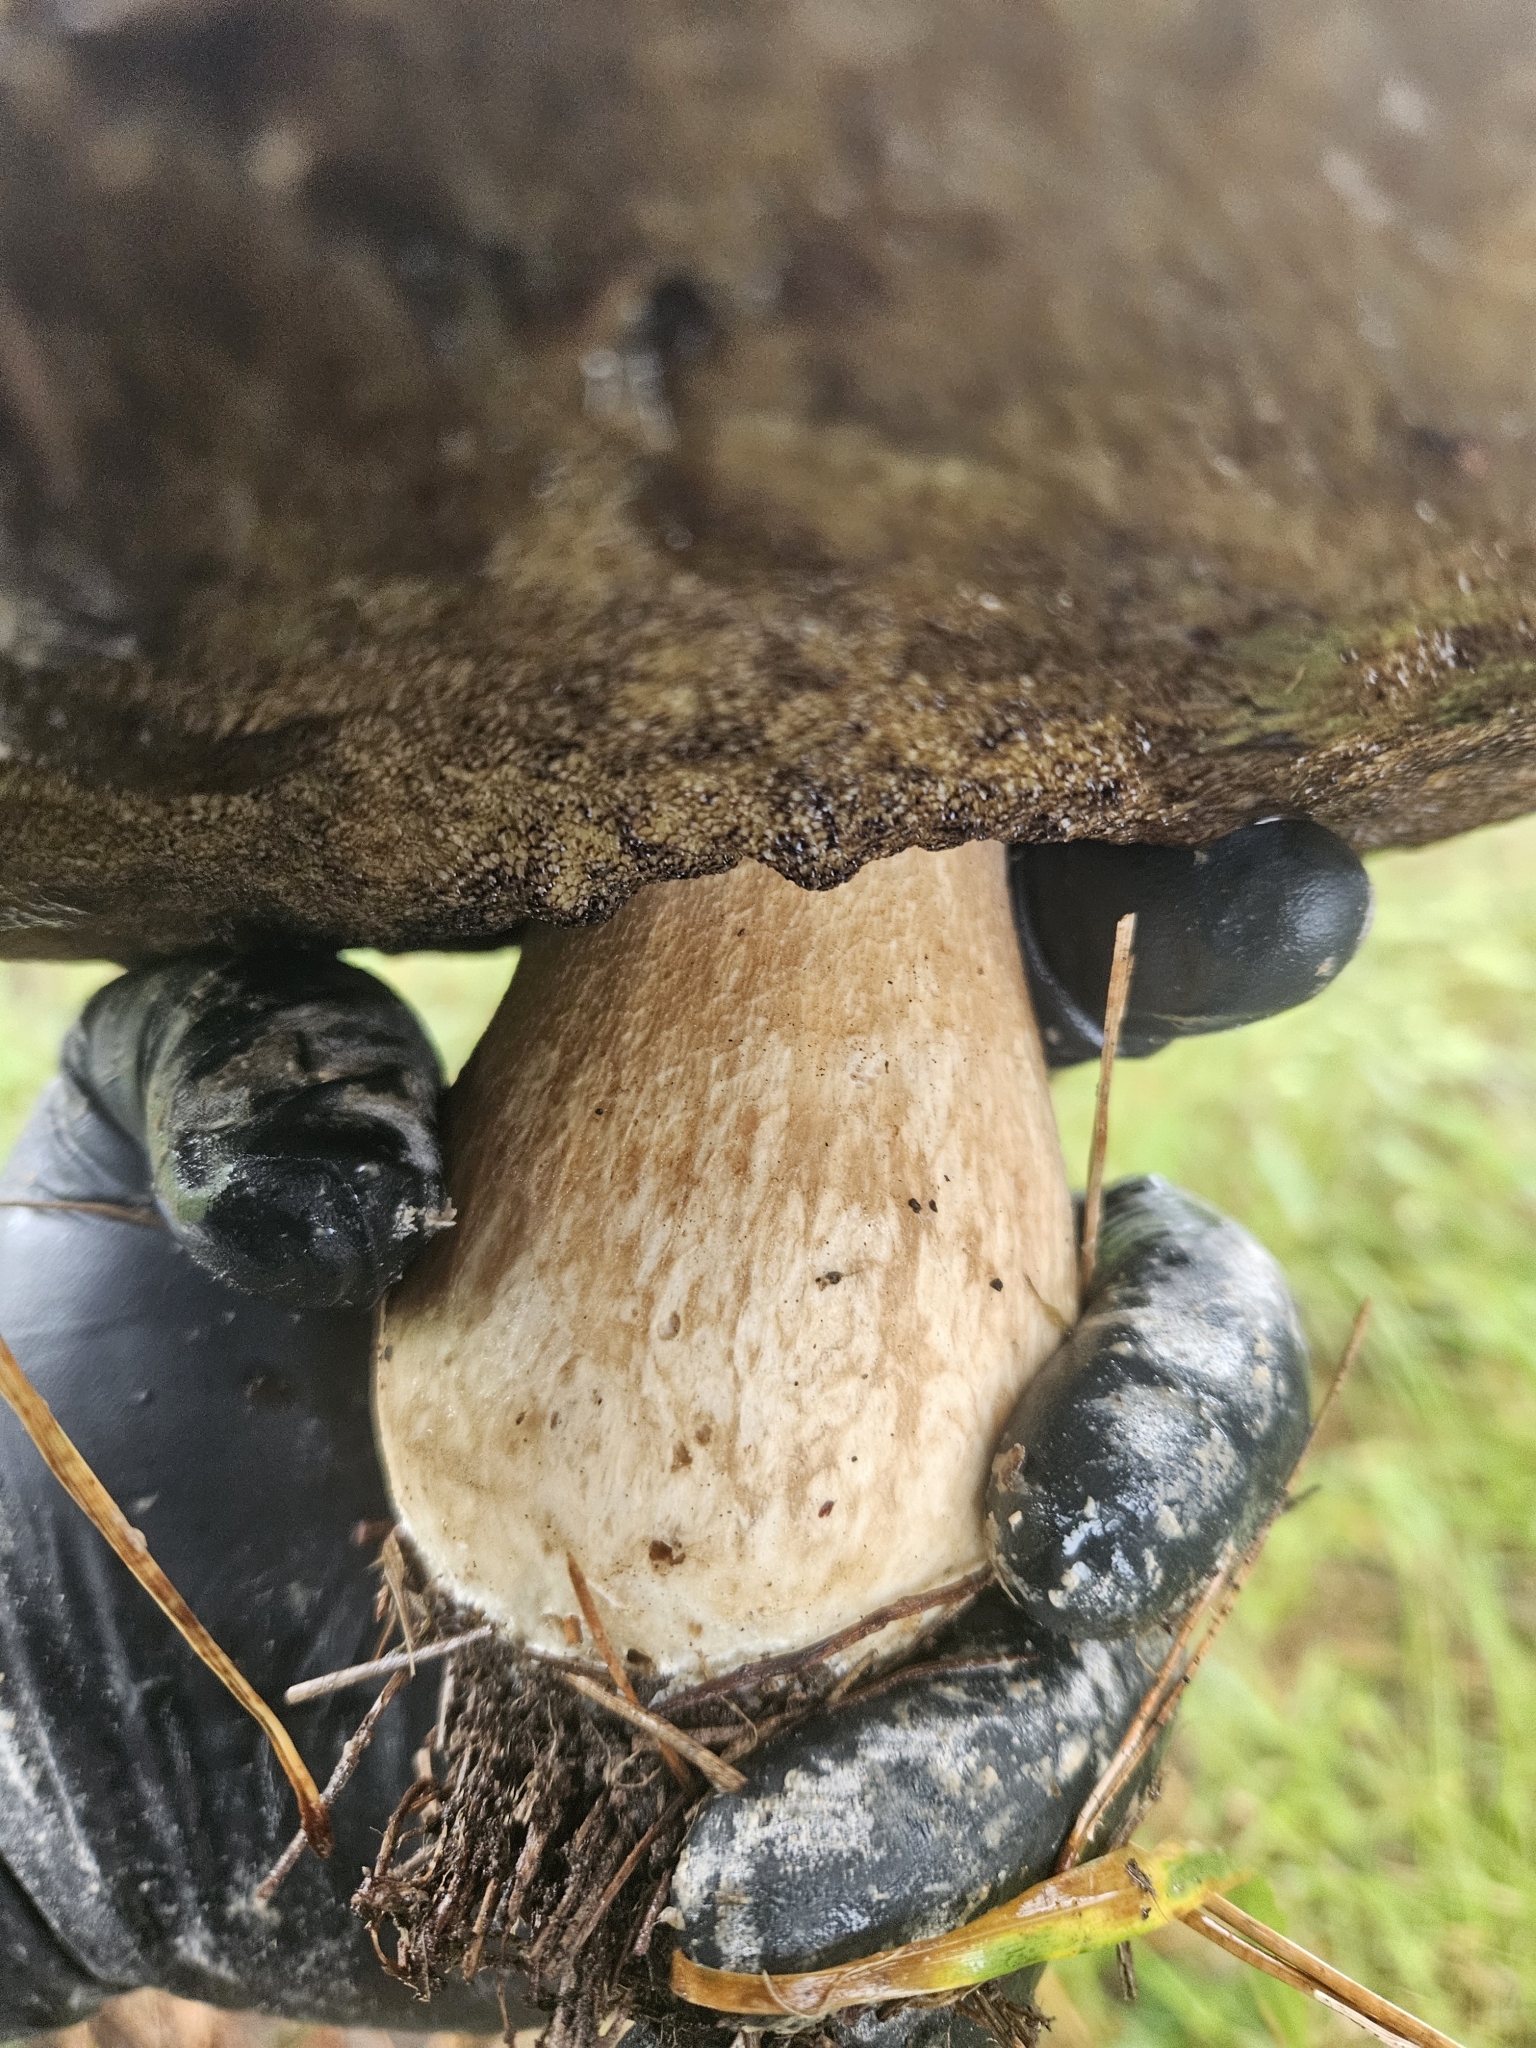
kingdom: Fungi
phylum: Basidiomycota
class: Agaricomycetes
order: Boletales
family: Boletaceae
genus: Boletus
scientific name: Boletus edulis
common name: Cep
